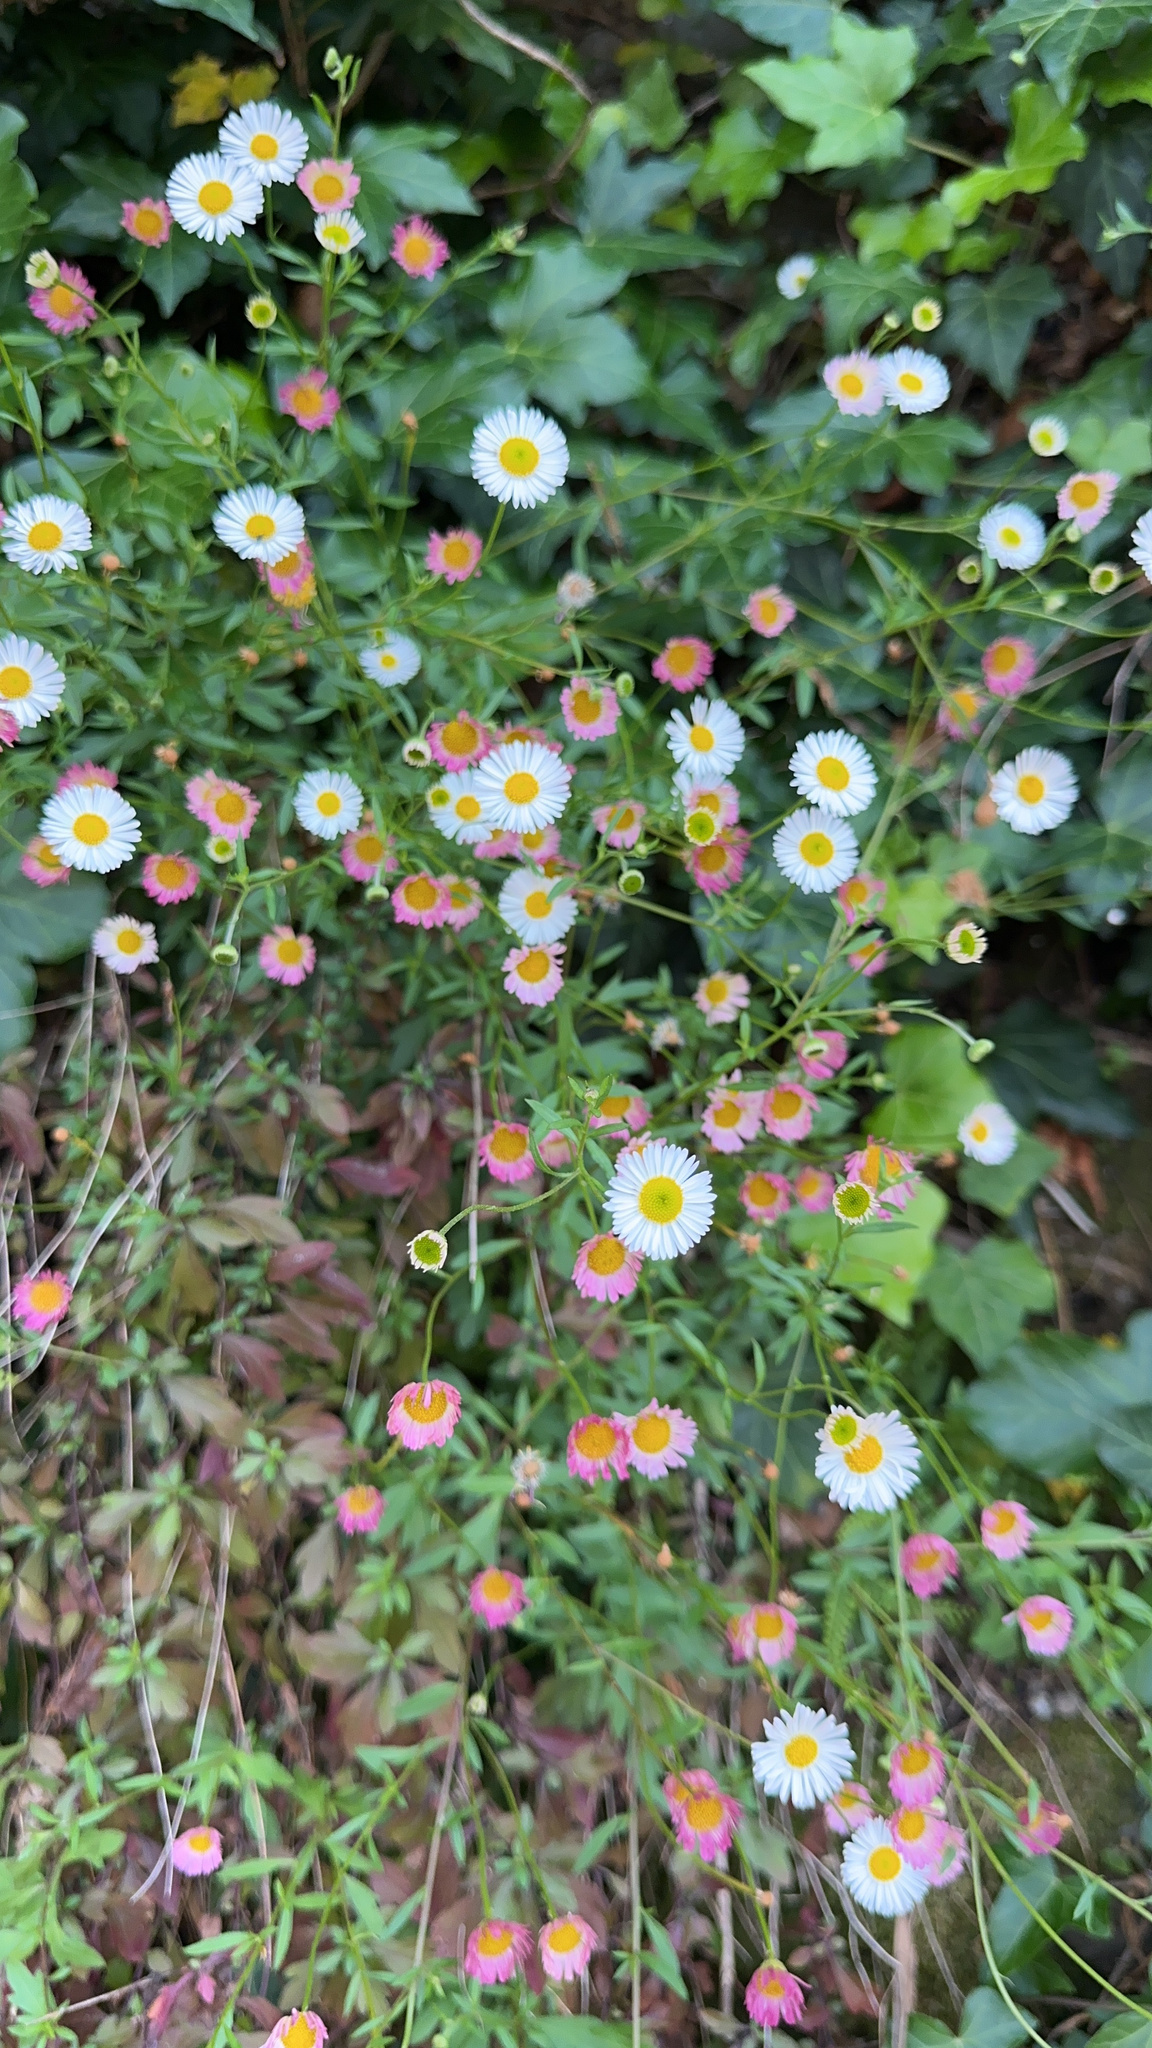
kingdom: Plantae
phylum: Tracheophyta
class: Magnoliopsida
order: Asterales
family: Asteraceae
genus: Erigeron
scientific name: Erigeron karvinskianus
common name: Mexican fleabane
